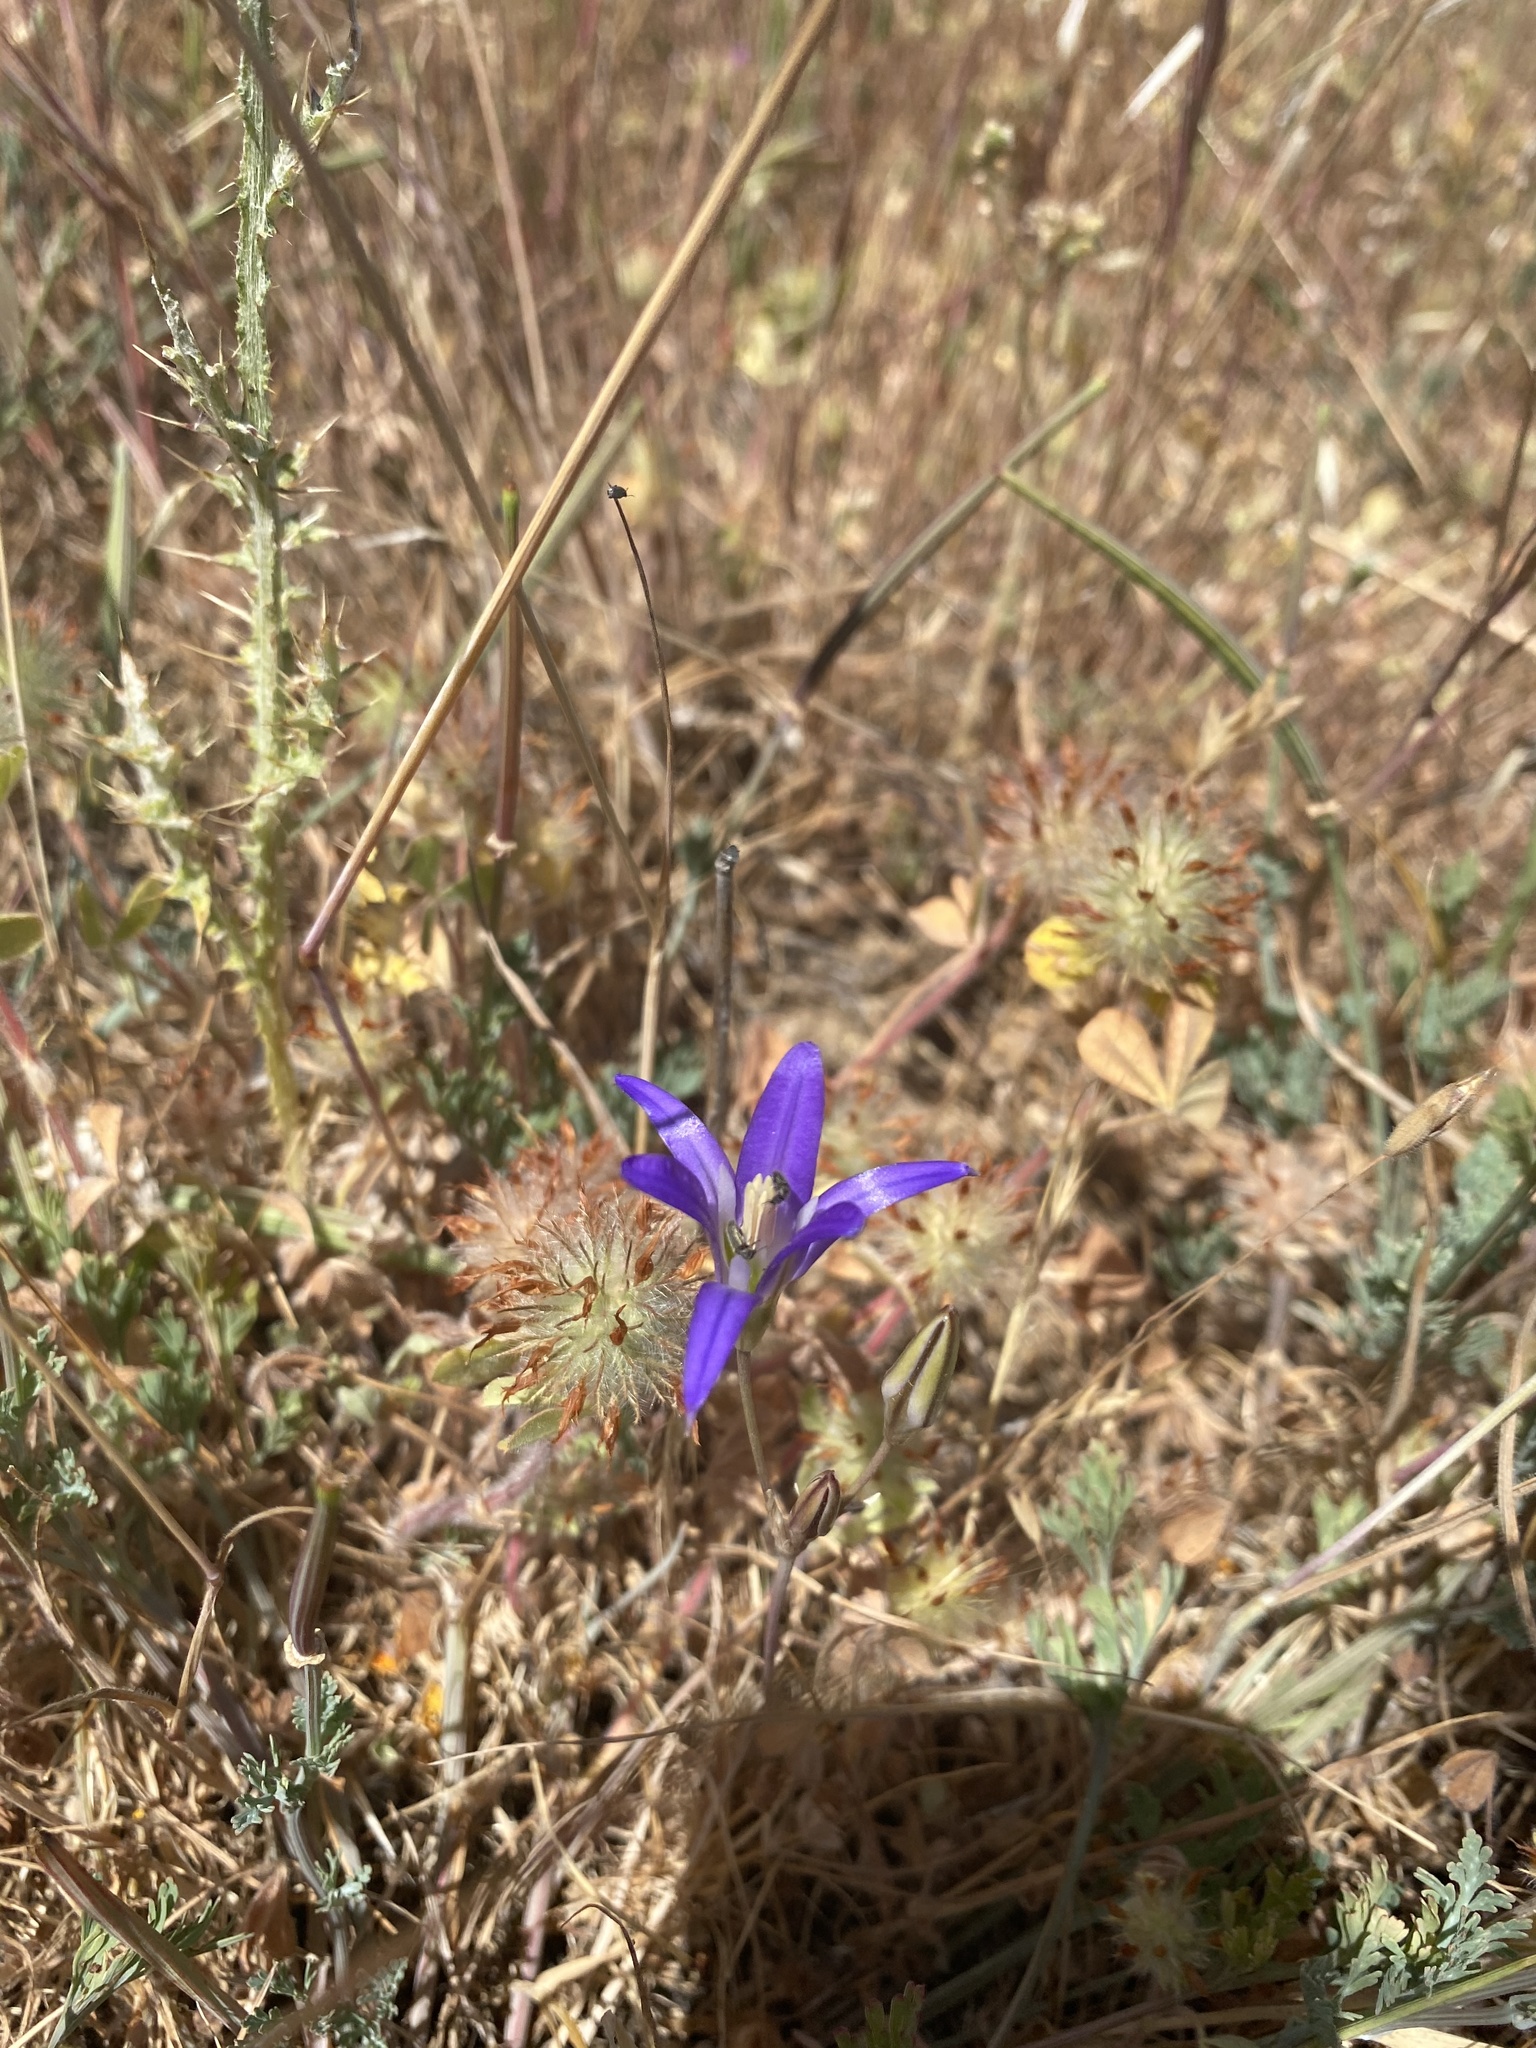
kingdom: Plantae
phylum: Tracheophyta
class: Liliopsida
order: Asparagales
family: Asparagaceae
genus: Brodiaea
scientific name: Brodiaea elegans
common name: Elegant cluster-lily
